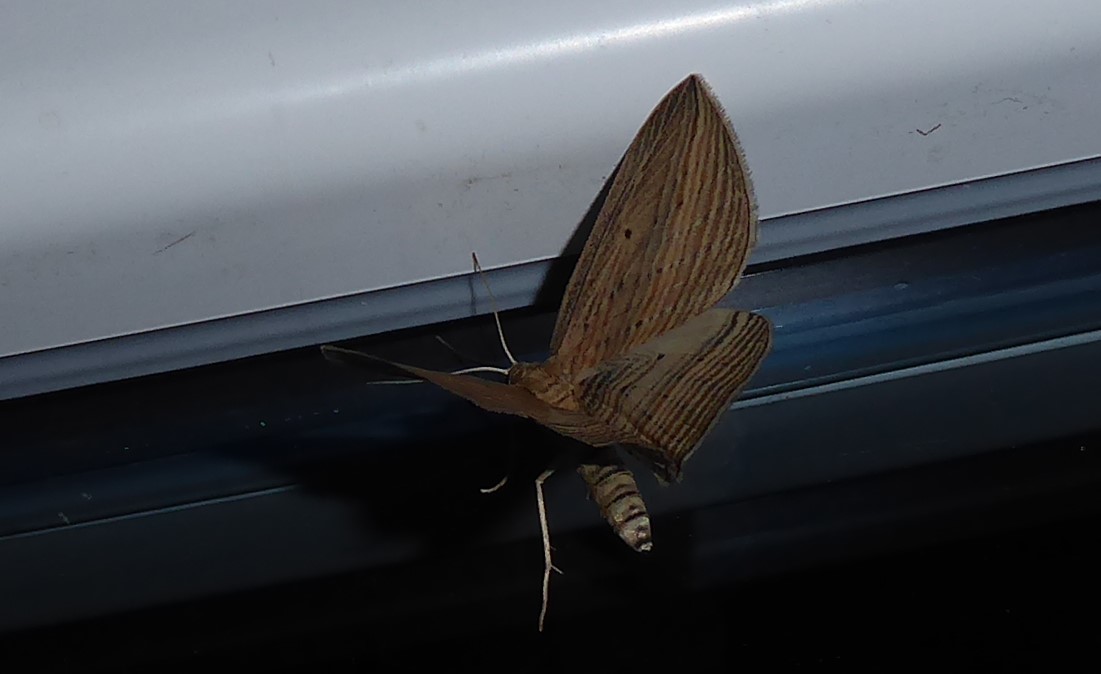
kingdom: Animalia
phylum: Arthropoda
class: Insecta
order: Lepidoptera
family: Geometridae
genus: Epiphryne
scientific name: Epiphryne verriculata
